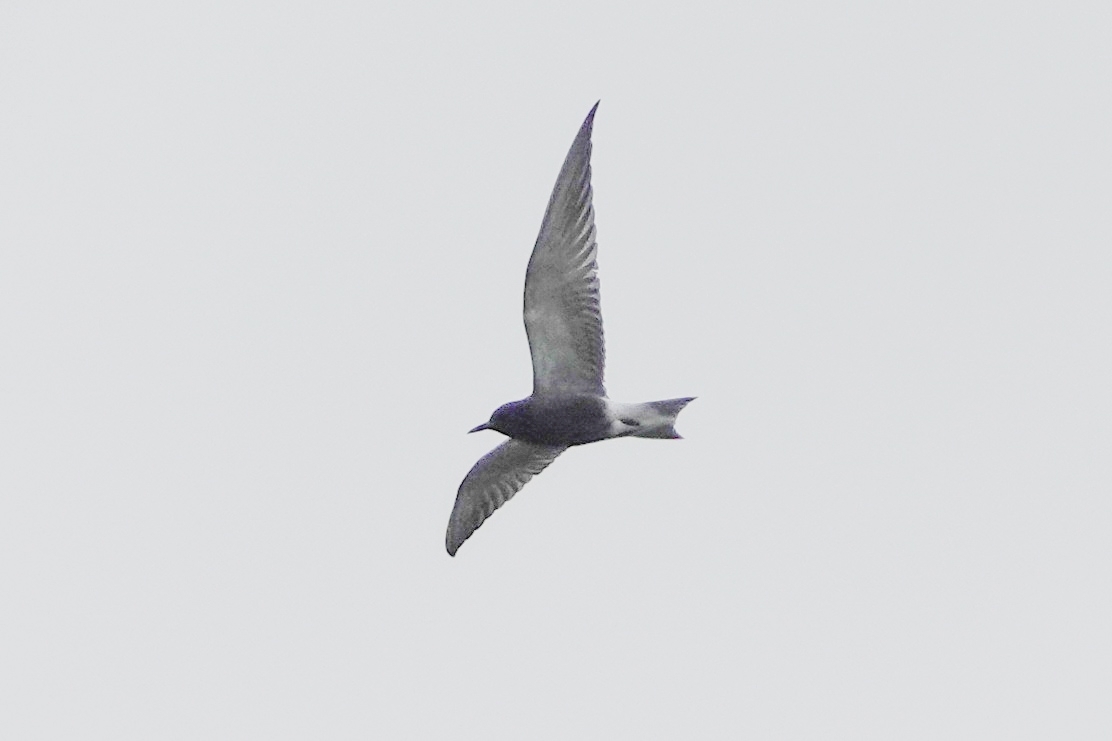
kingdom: Animalia
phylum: Chordata
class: Aves
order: Charadriiformes
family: Laridae
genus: Chlidonias
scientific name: Chlidonias niger
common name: Black tern
